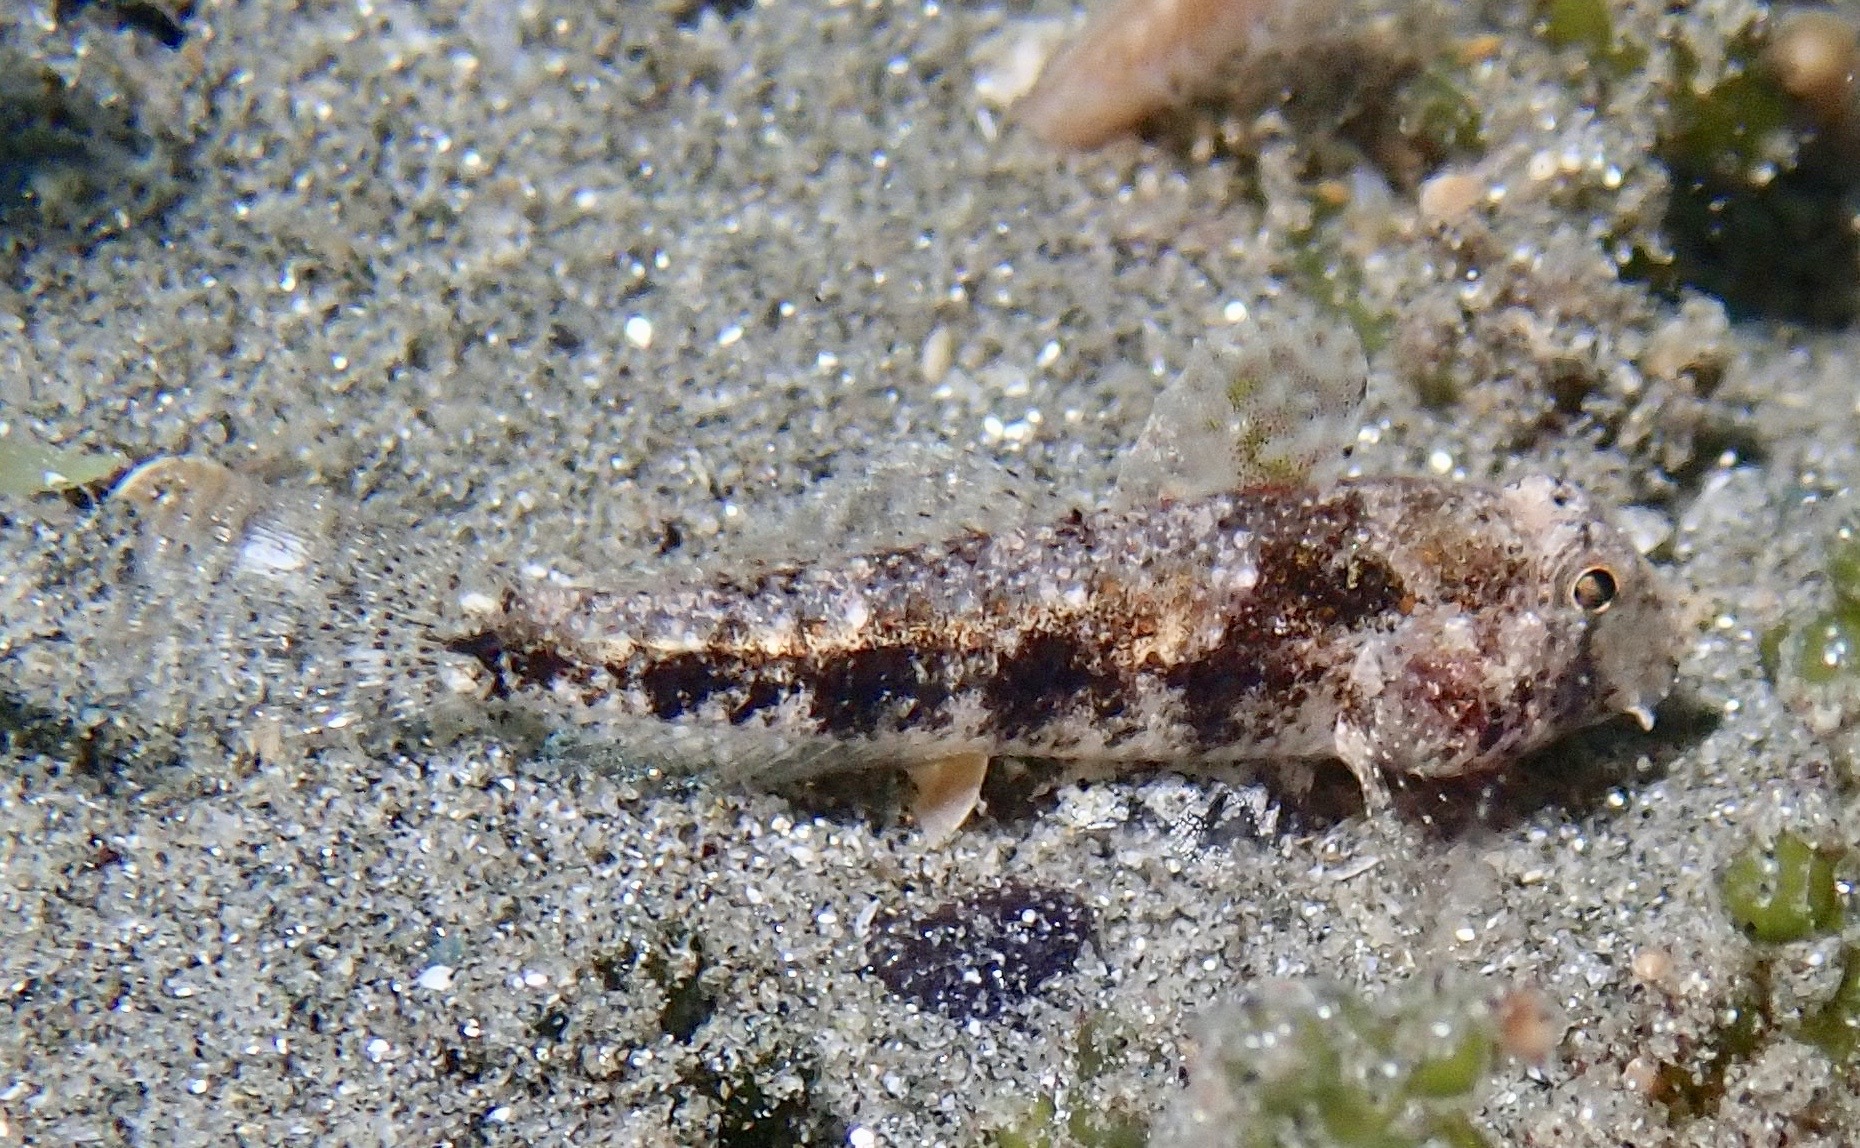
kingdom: Animalia
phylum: Chordata
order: Perciformes
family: Gobiidae
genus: Gnatholepis
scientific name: Gnatholepis yoshinoi
